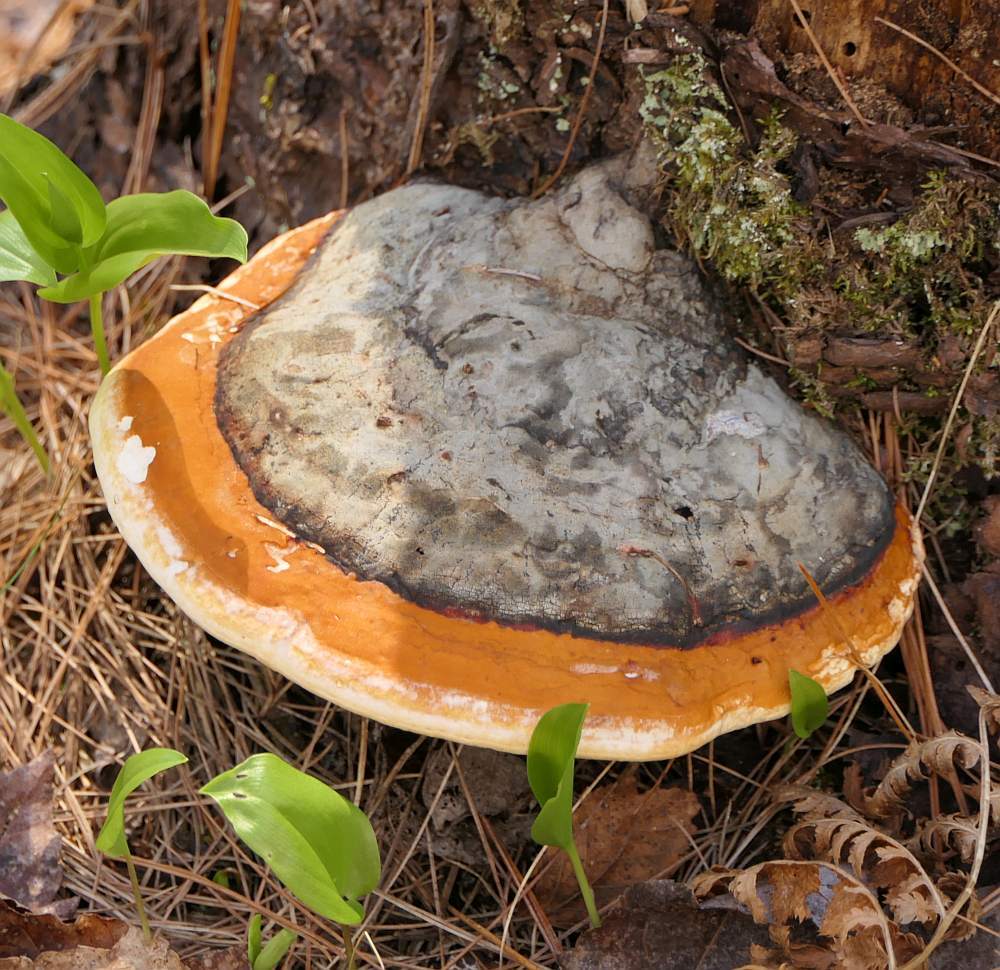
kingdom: Fungi
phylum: Basidiomycota
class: Agaricomycetes
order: Polyporales
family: Fomitopsidaceae
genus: Fomitopsis
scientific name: Fomitopsis mounceae
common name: Northern red belt
